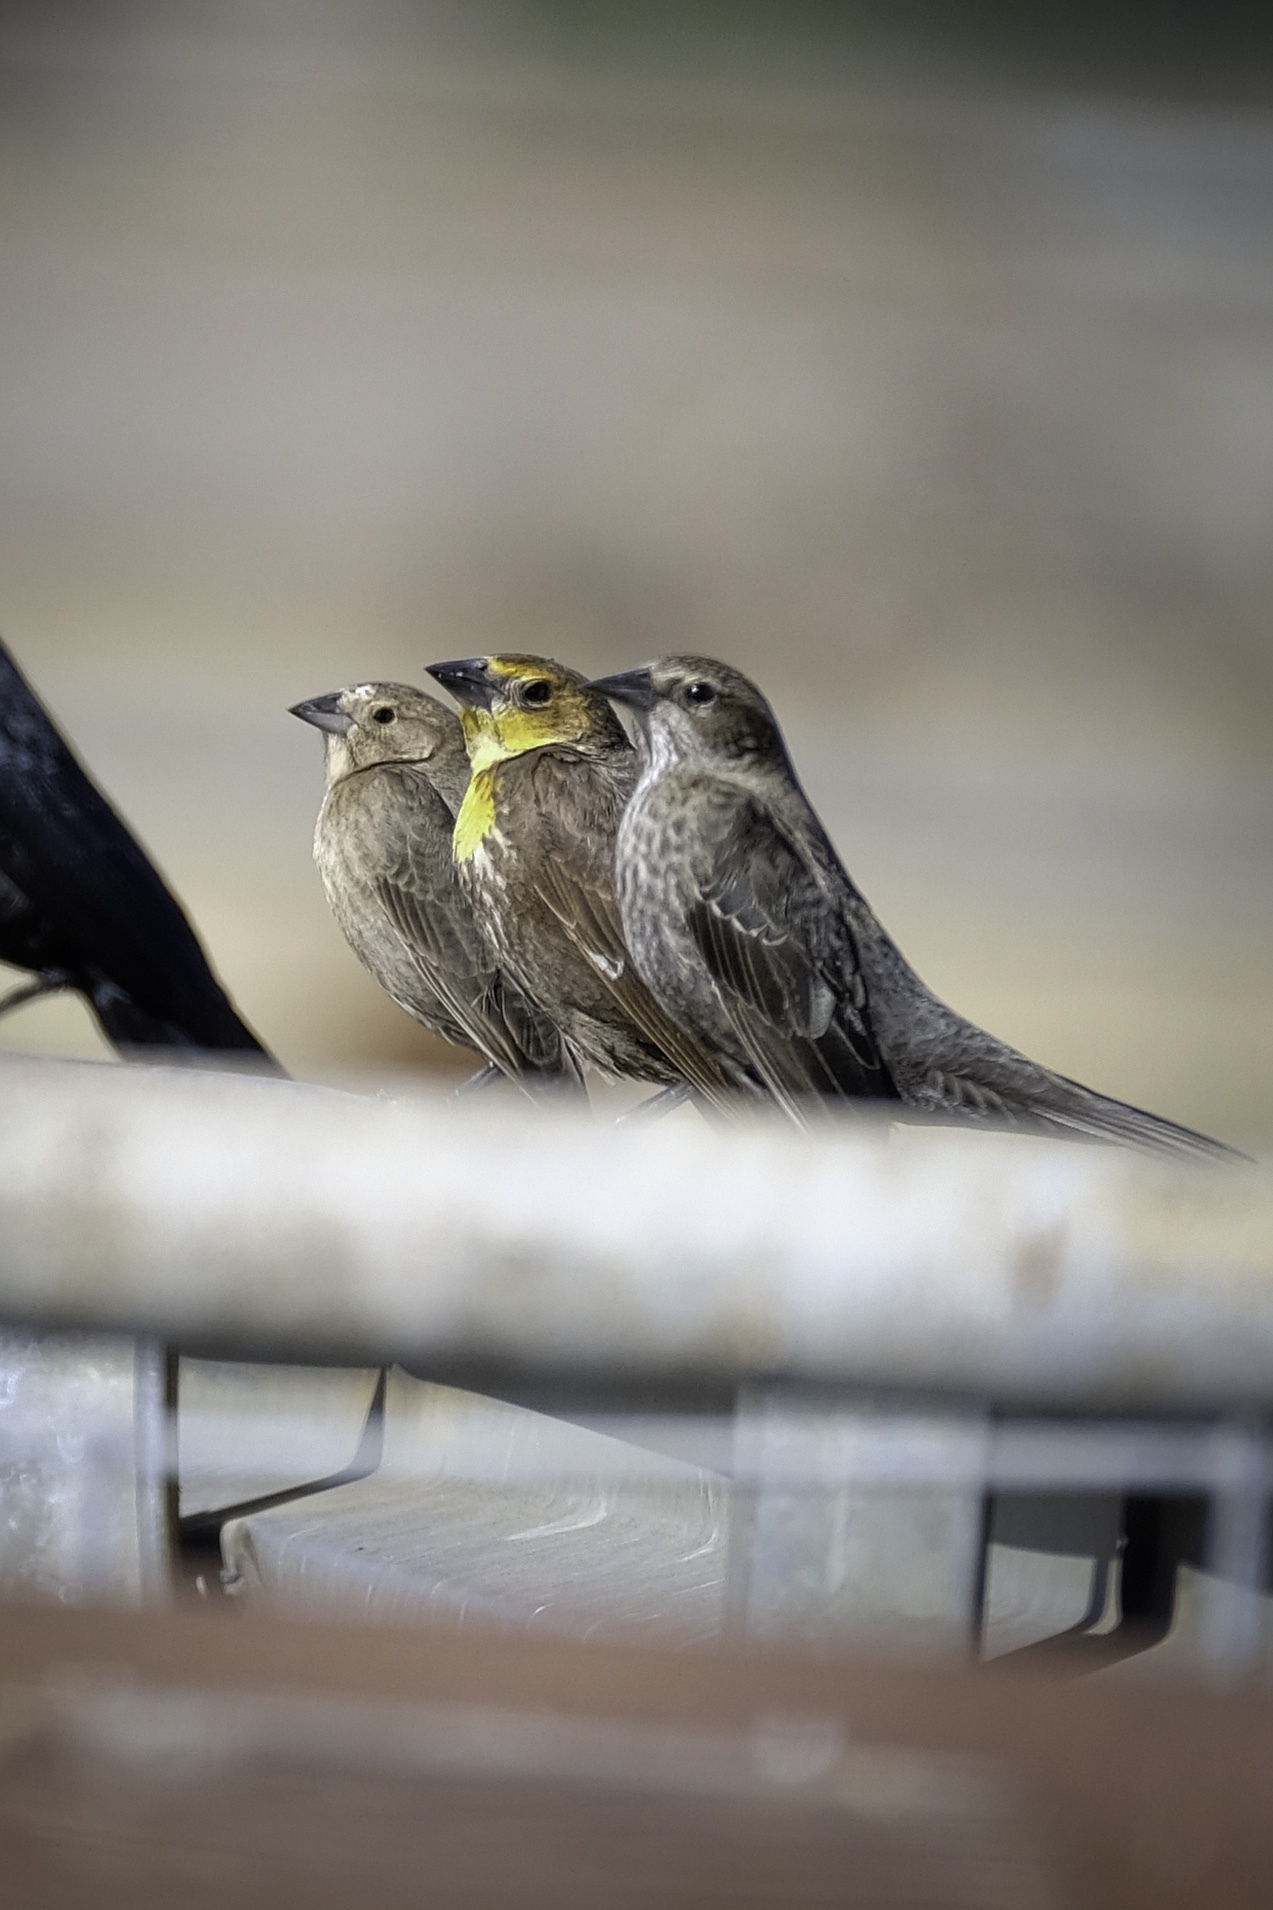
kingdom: Animalia
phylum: Chordata
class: Aves
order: Passeriformes
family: Icteridae
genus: Xanthocephalus
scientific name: Xanthocephalus xanthocephalus
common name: Yellow-headed blackbird
